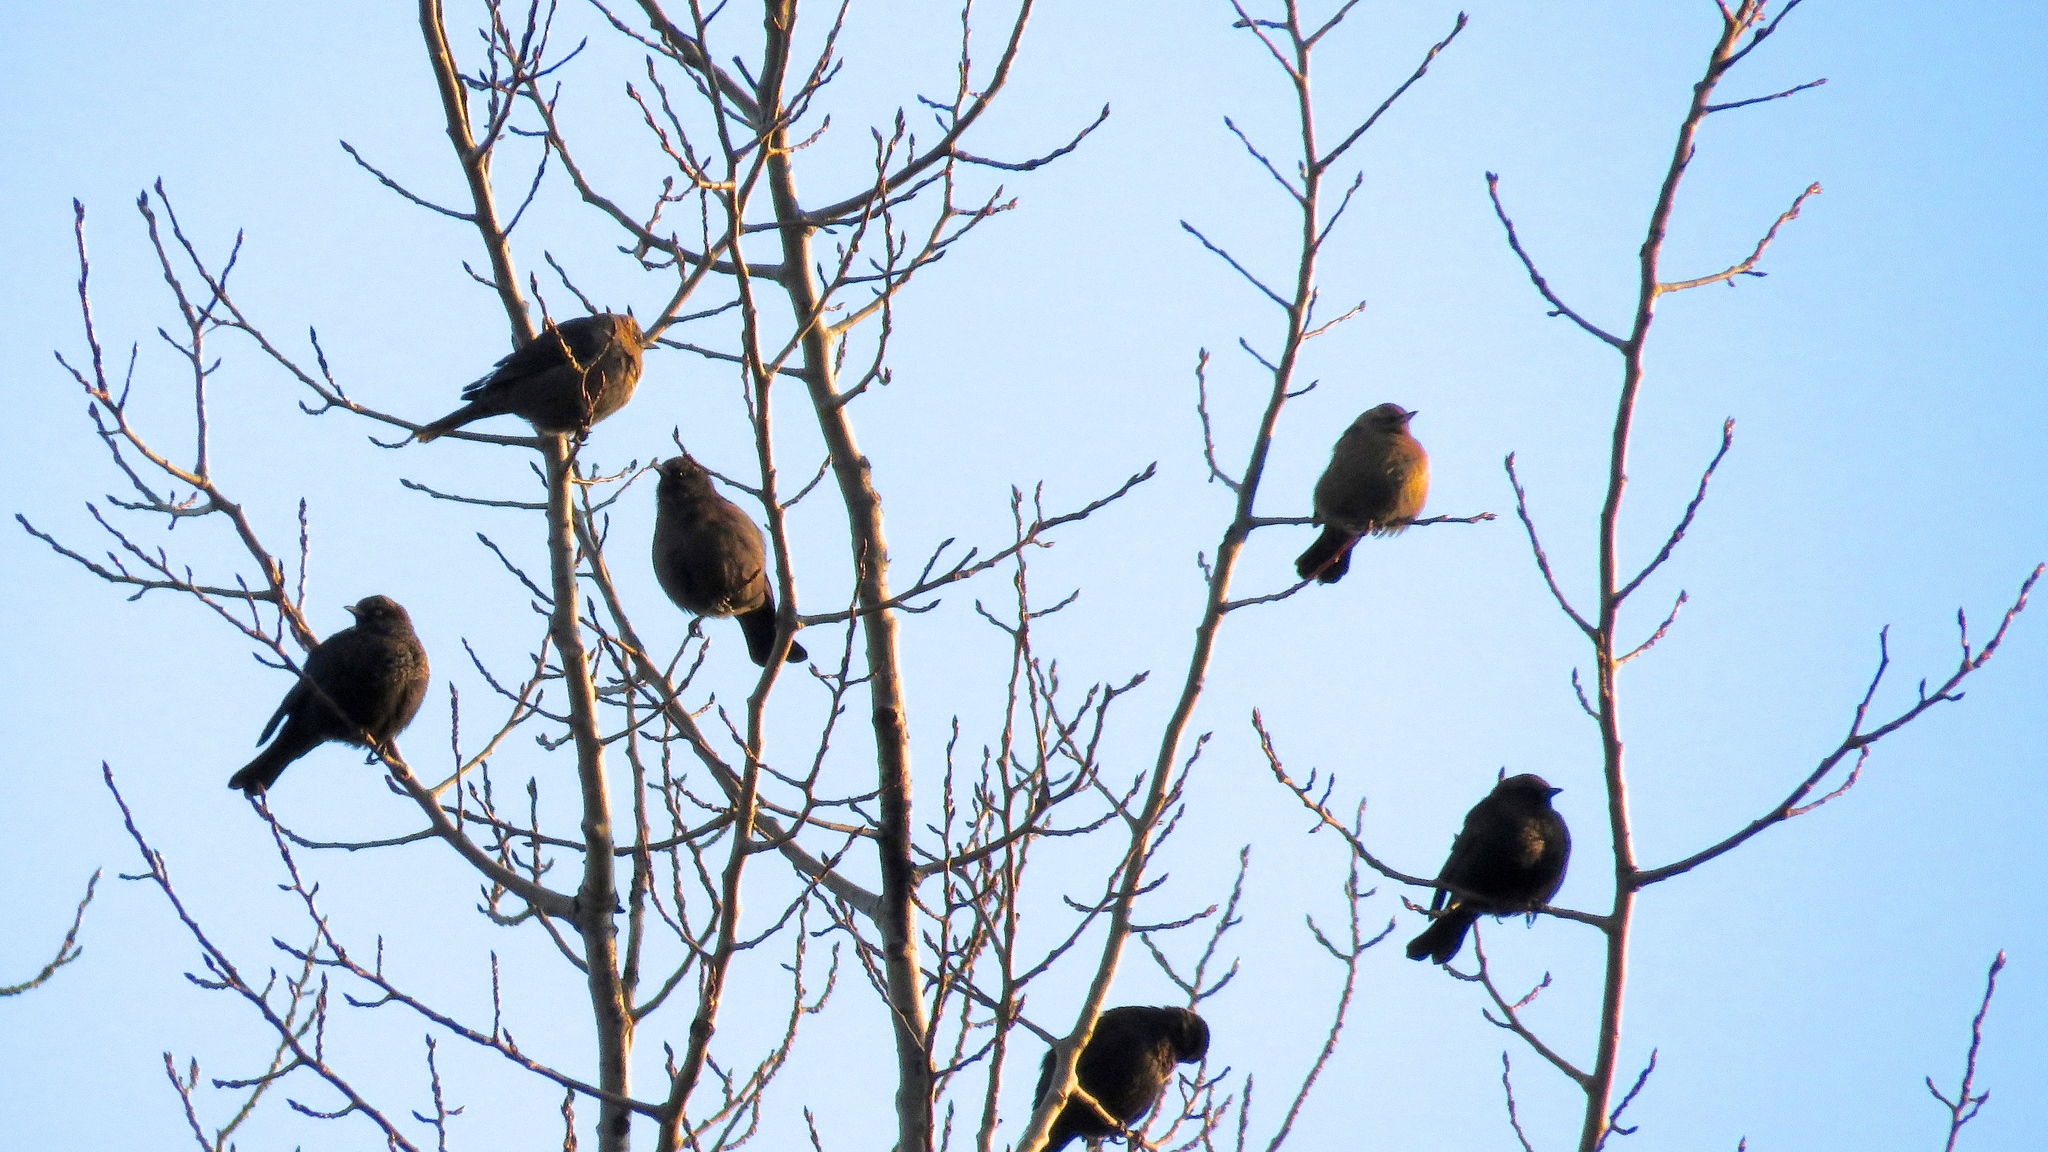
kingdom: Animalia
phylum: Chordata
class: Aves
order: Passeriformes
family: Icteridae
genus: Euphagus
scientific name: Euphagus carolinus
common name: Rusty blackbird
